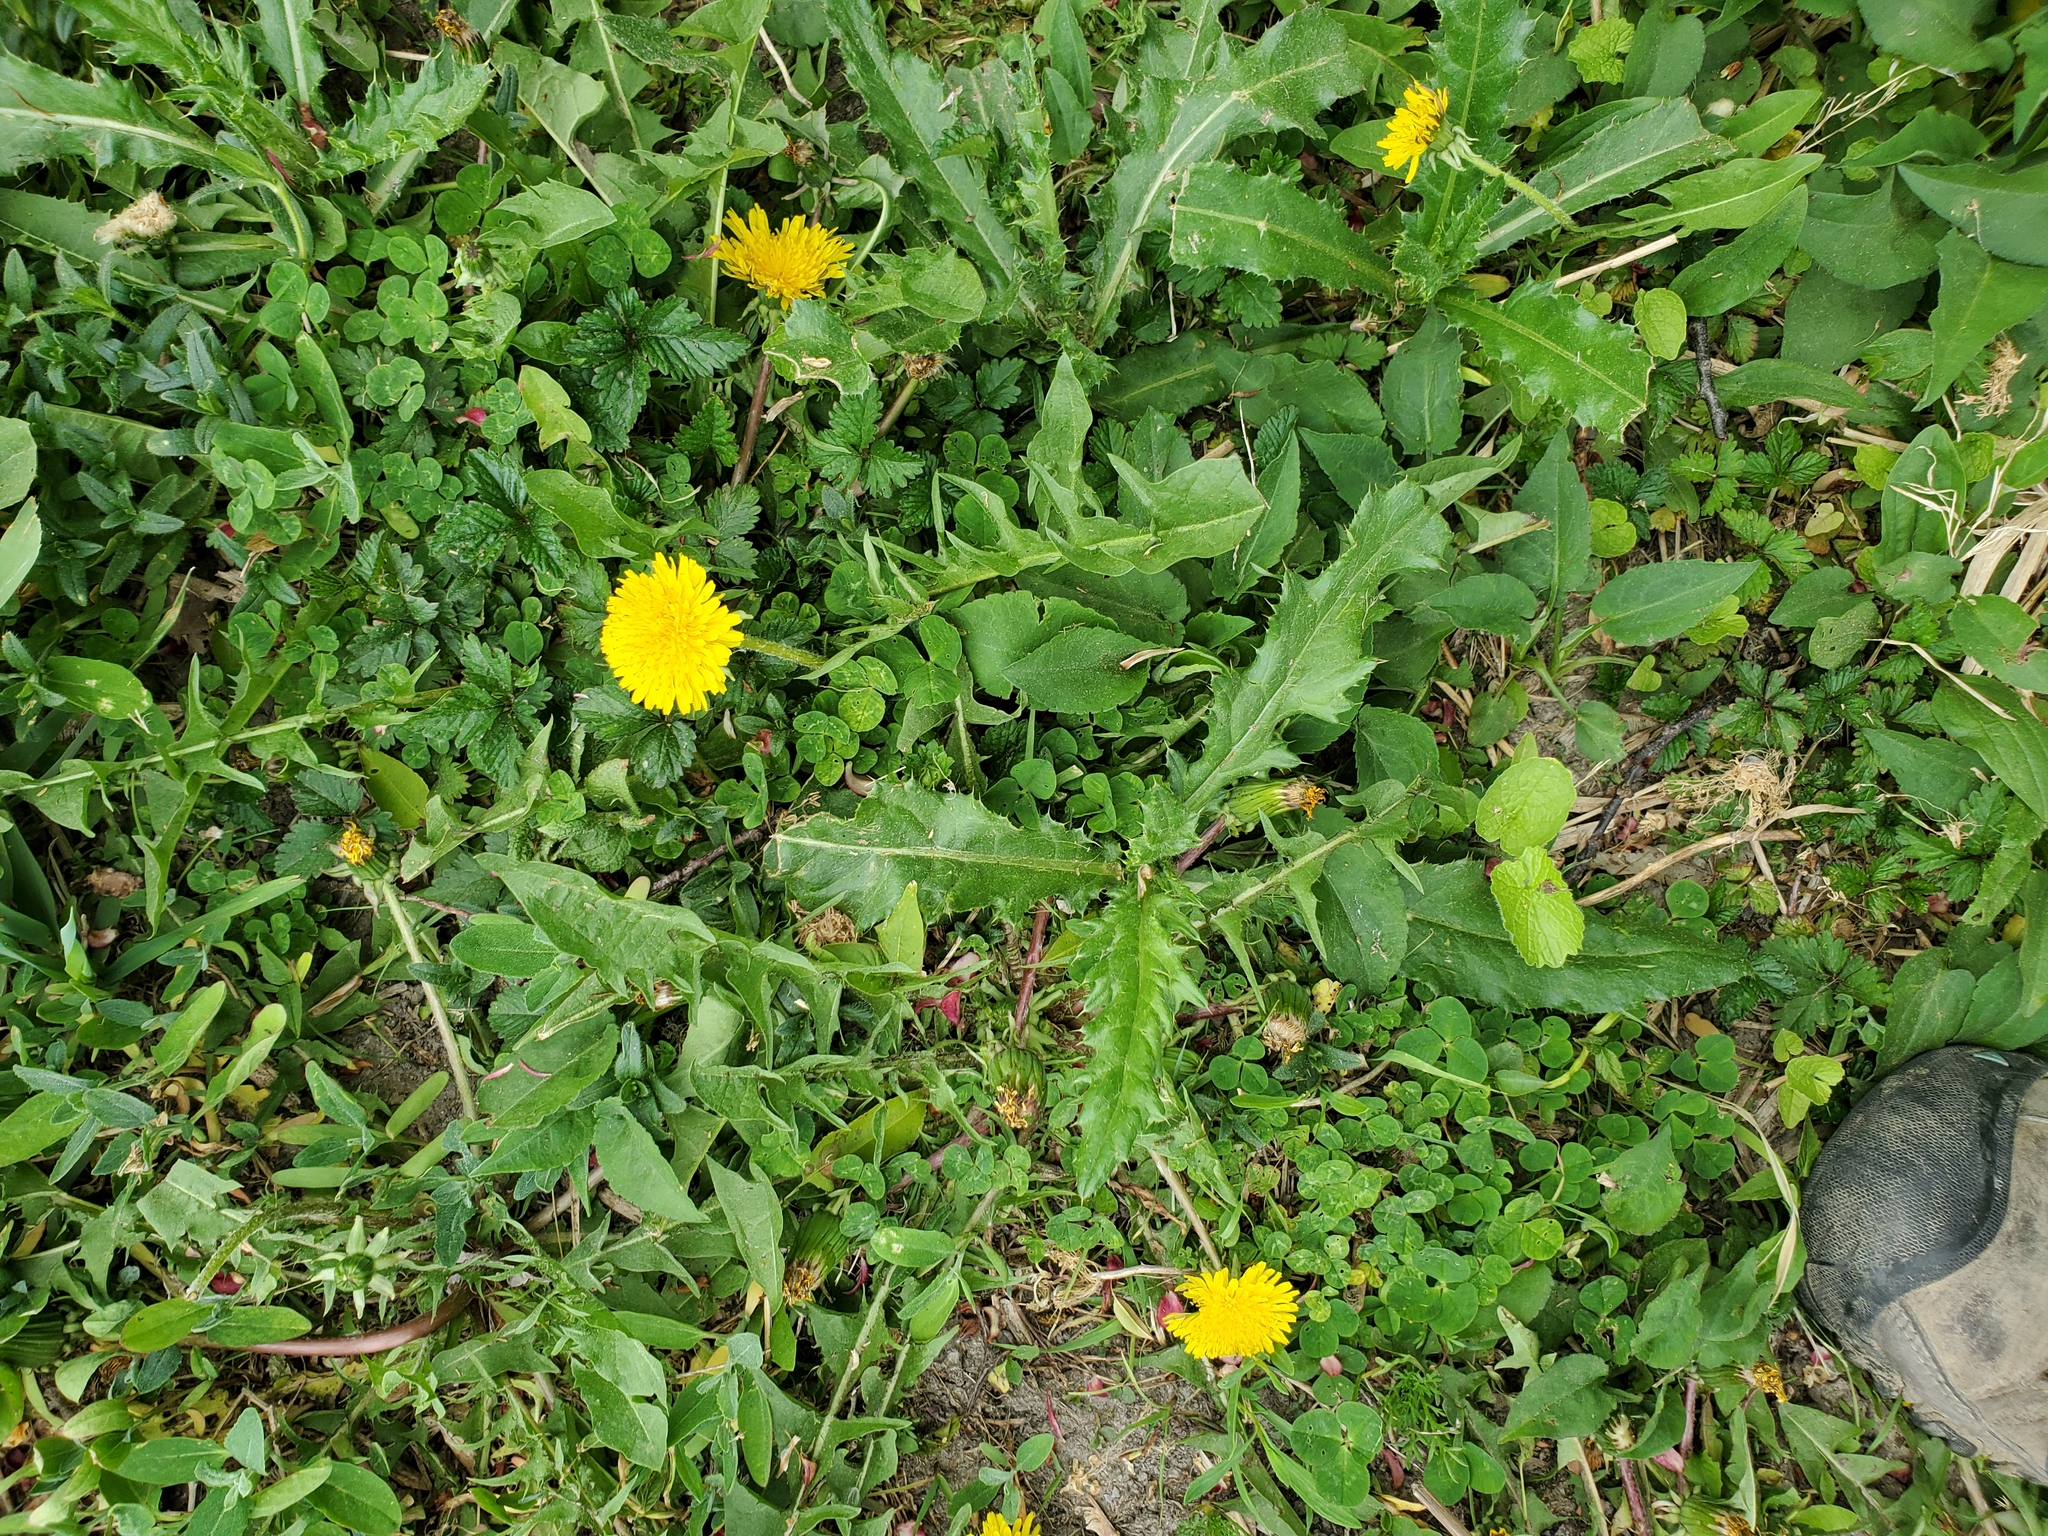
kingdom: Plantae
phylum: Tracheophyta
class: Magnoliopsida
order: Asterales
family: Asteraceae
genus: Taraxacum
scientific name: Taraxacum officinale
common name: Common dandelion
